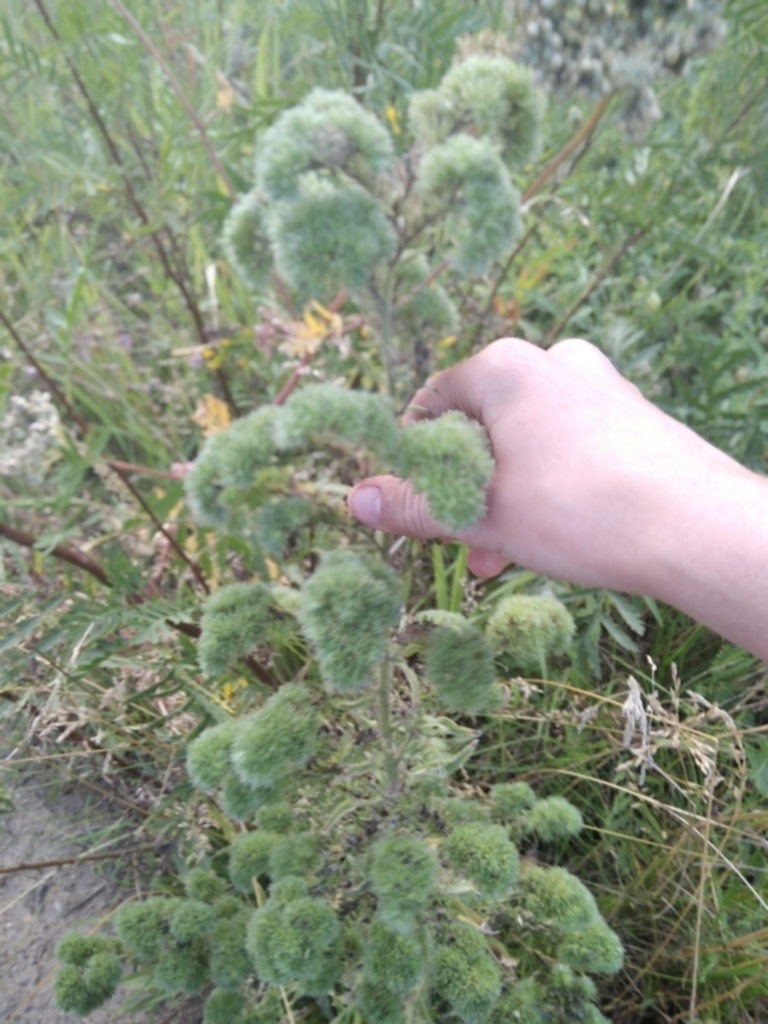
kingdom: Animalia
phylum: Arthropoda
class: Arachnida
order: Trombidiformes
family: Eriophyidae
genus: Aceria
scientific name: Aceria echii
